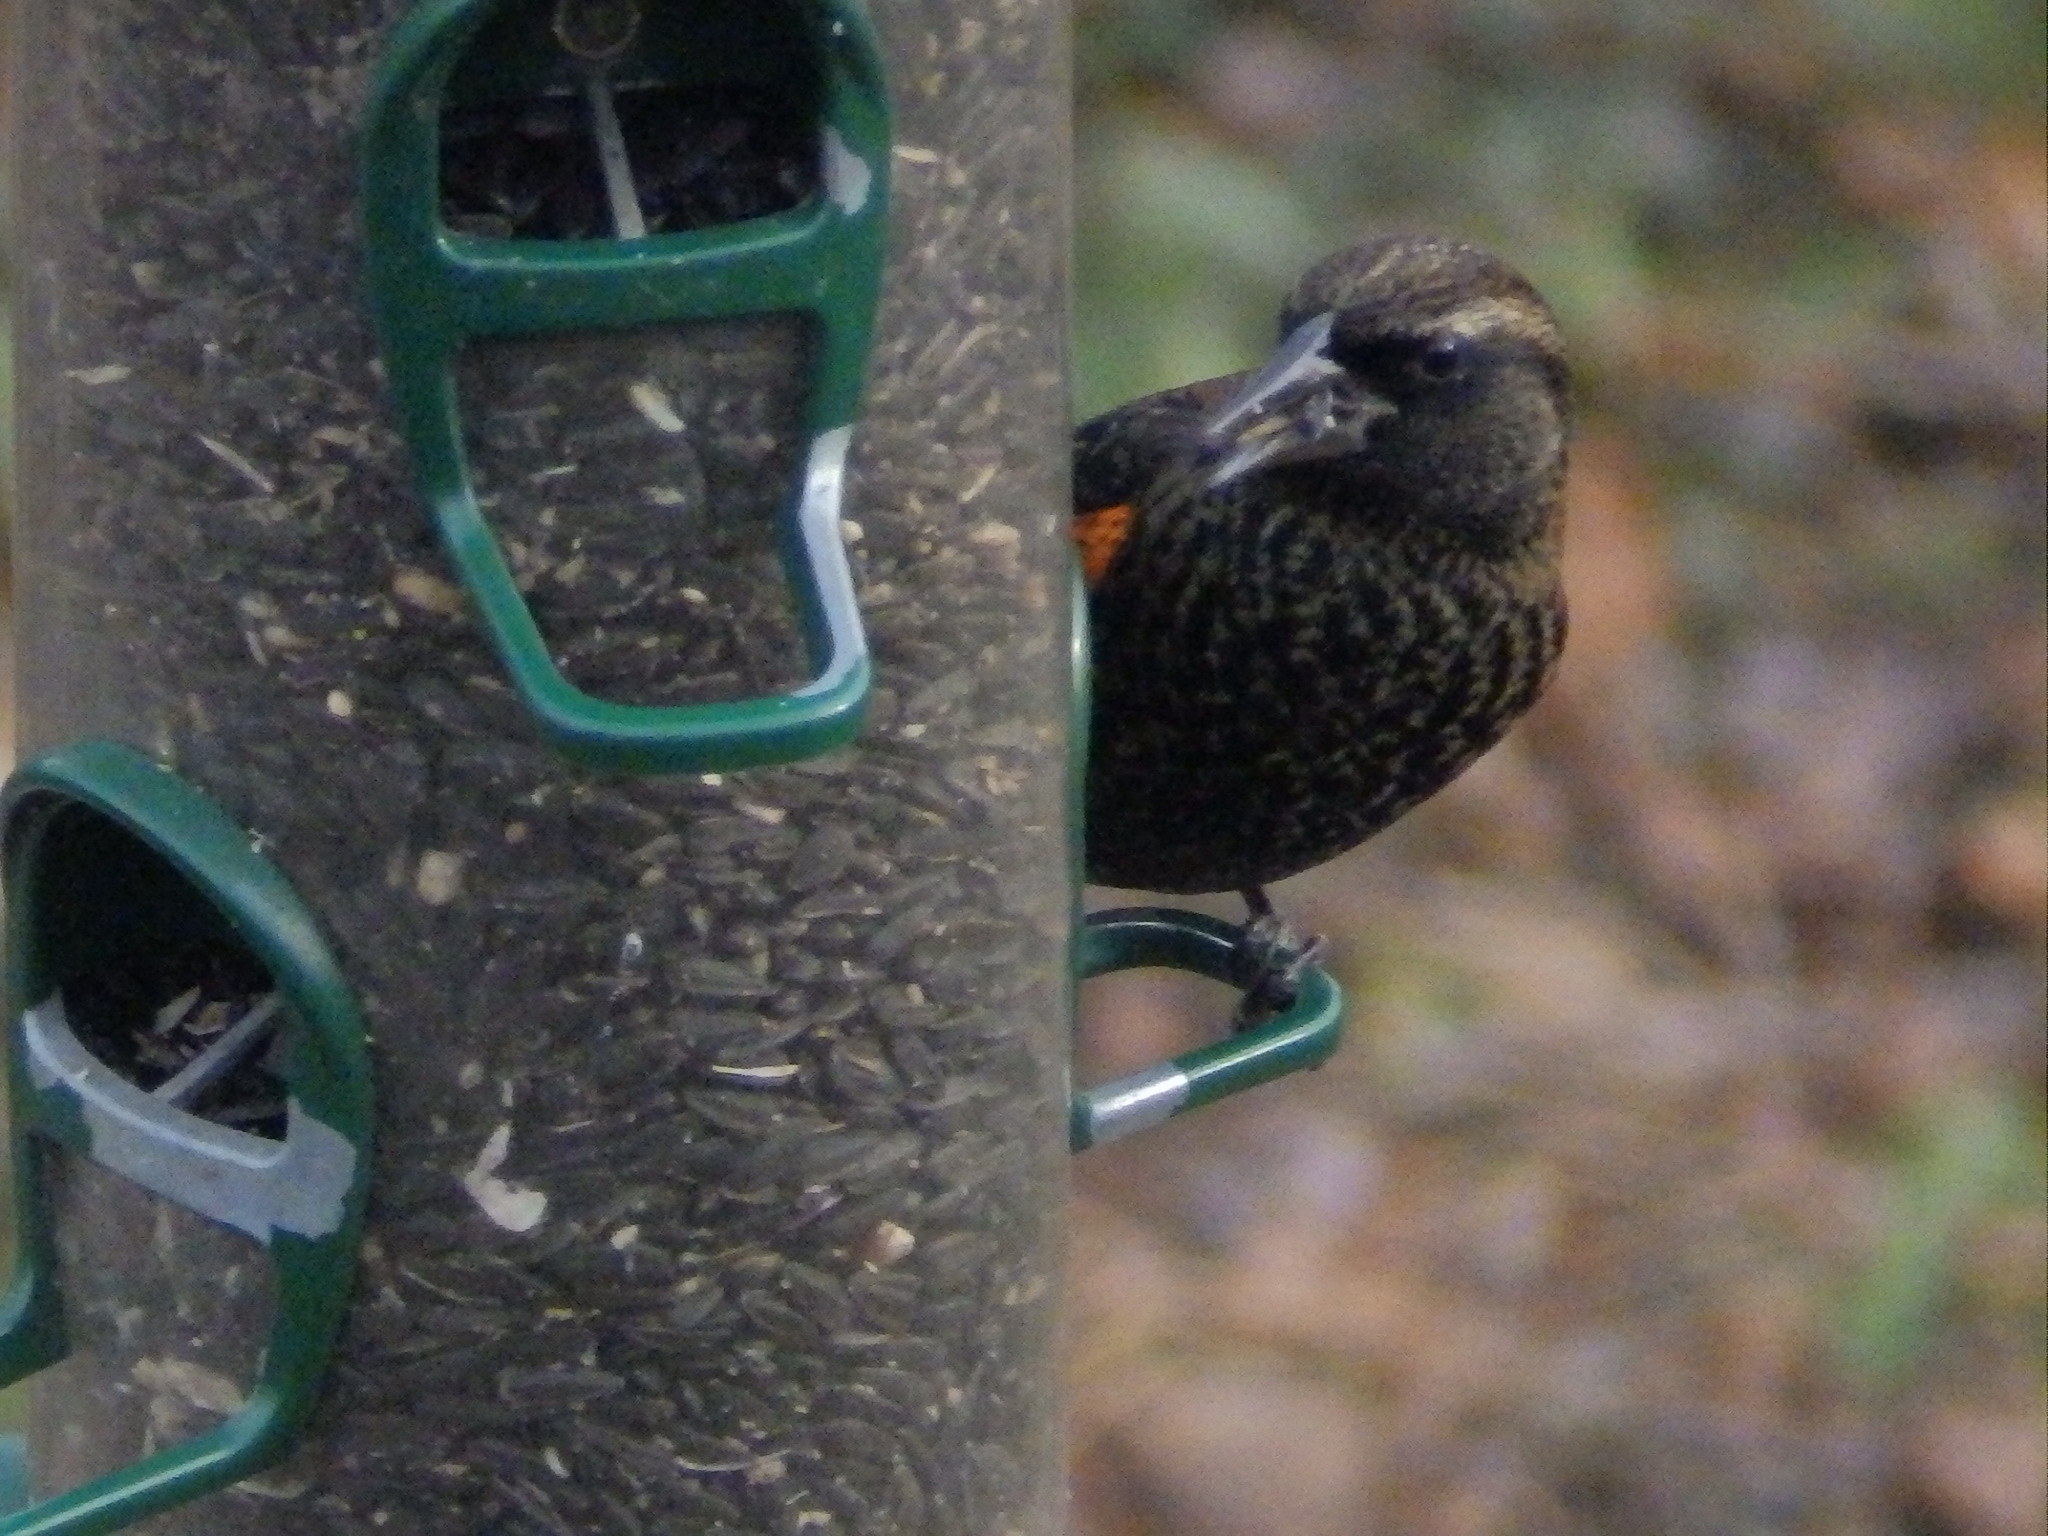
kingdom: Animalia
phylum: Chordata
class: Aves
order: Passeriformes
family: Icteridae
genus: Agelaius
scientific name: Agelaius phoeniceus
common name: Red-winged blackbird
